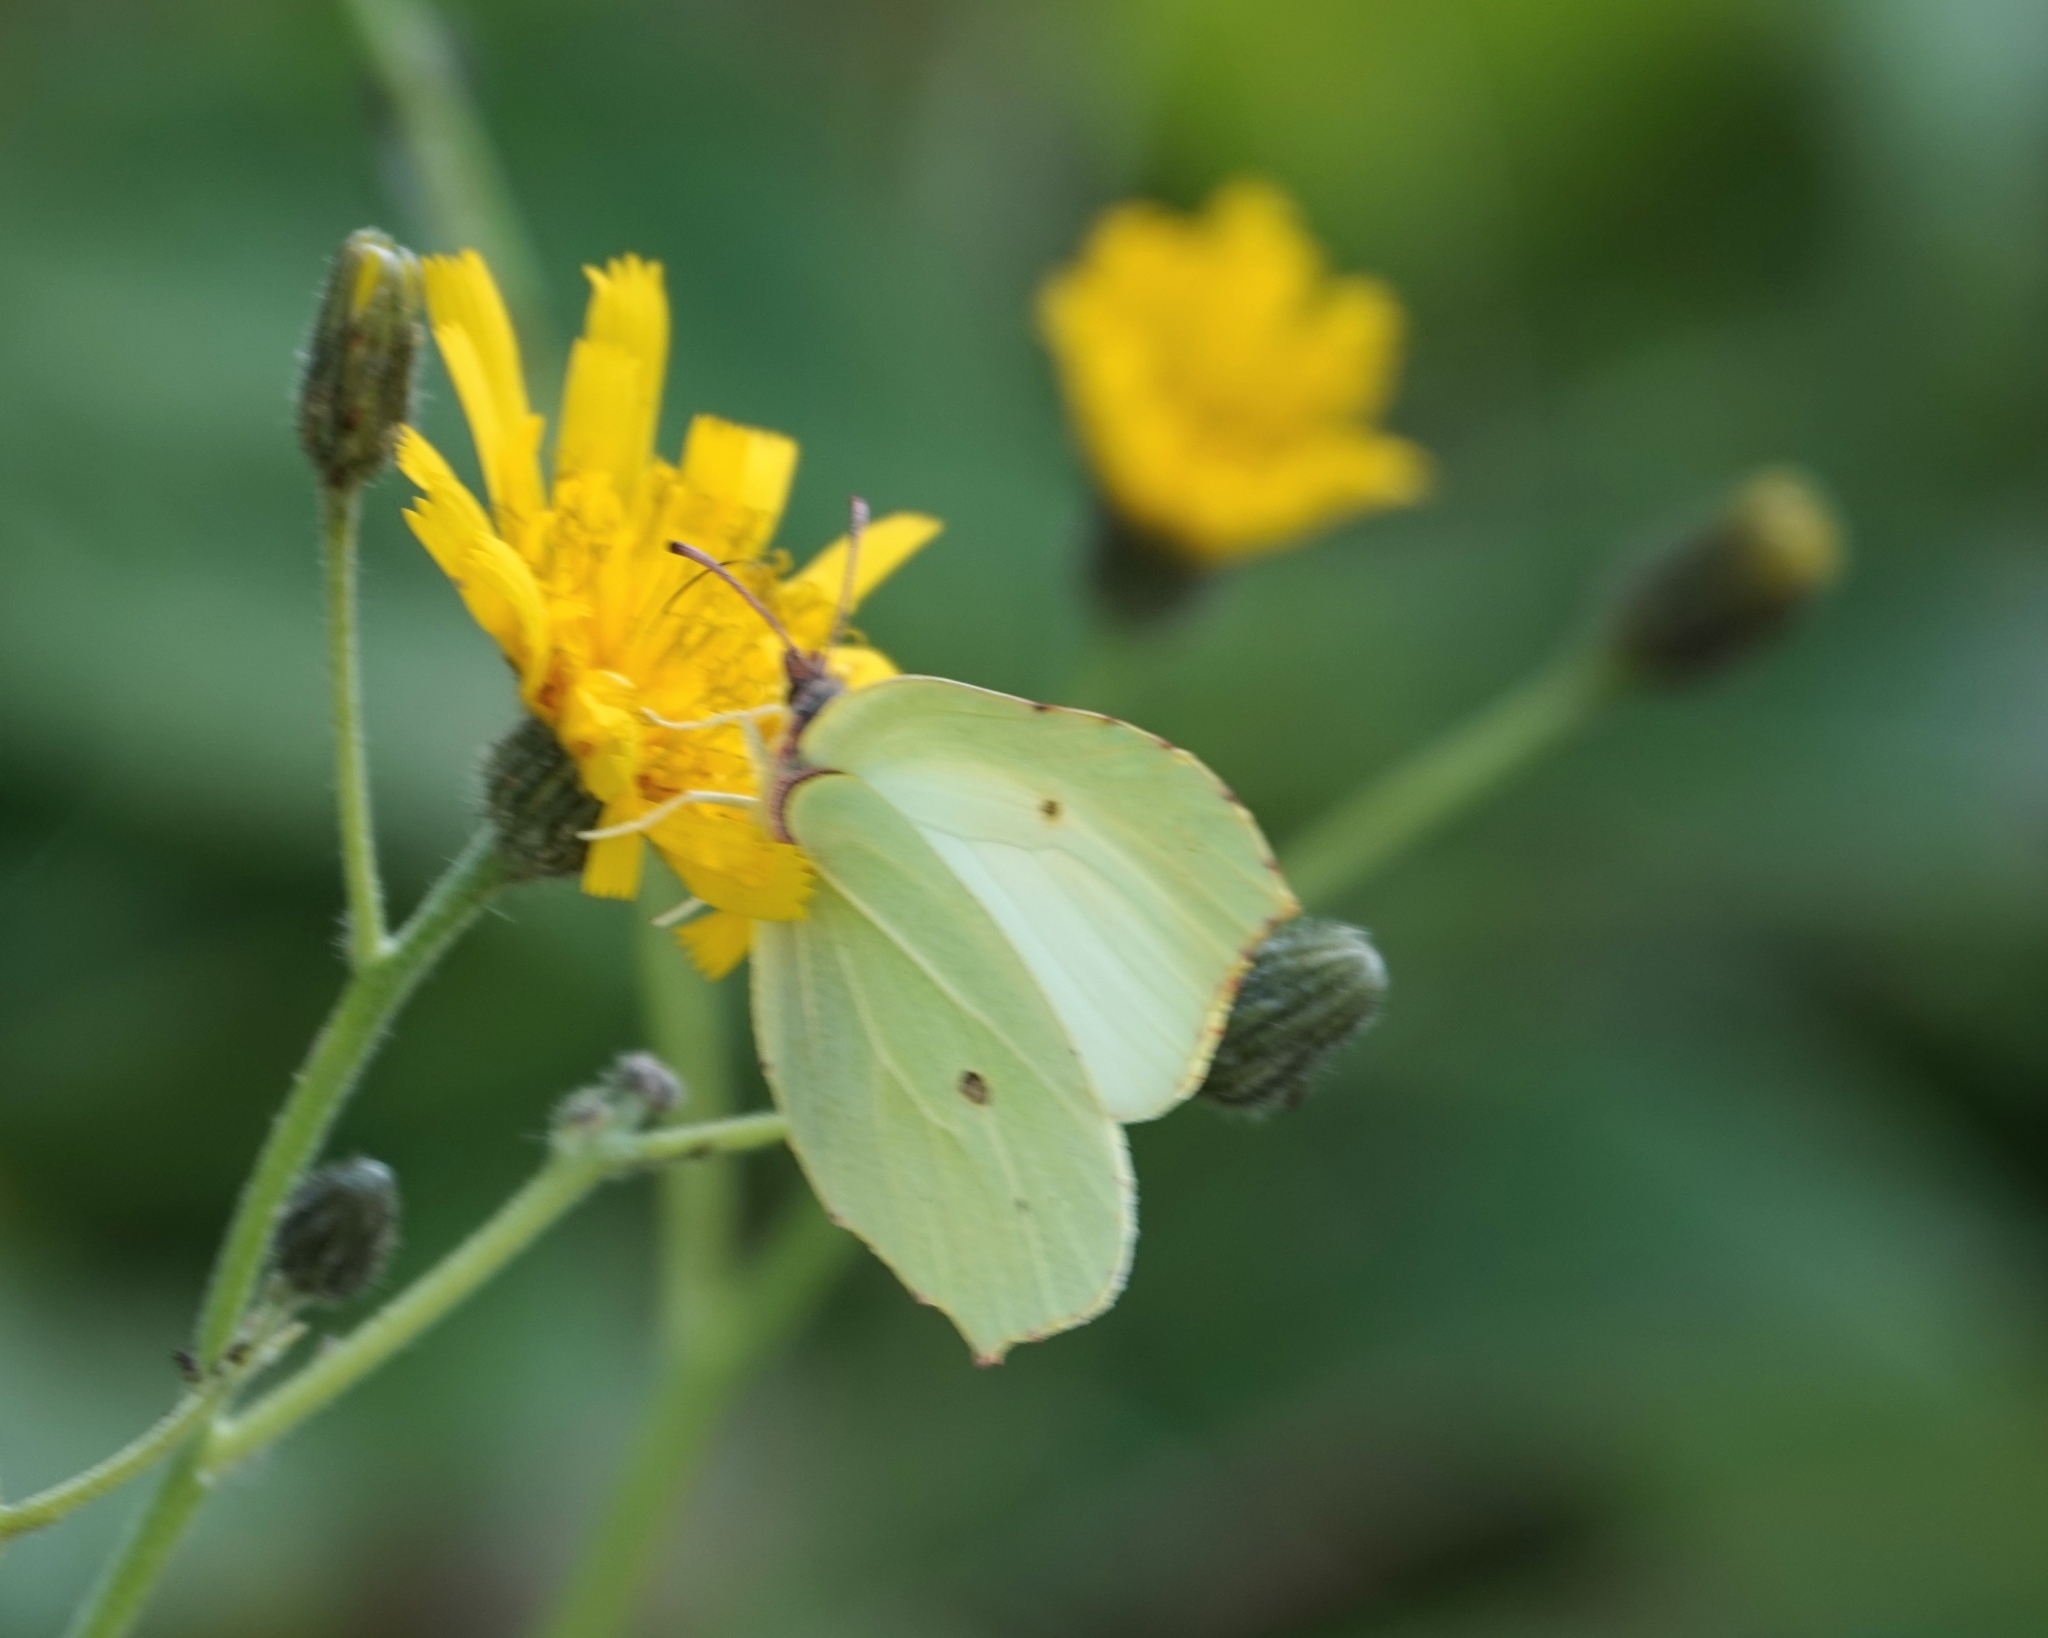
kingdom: Animalia
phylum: Arthropoda
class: Insecta
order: Lepidoptera
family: Pieridae
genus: Gonepteryx
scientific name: Gonepteryx rhamni
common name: Brimstone
